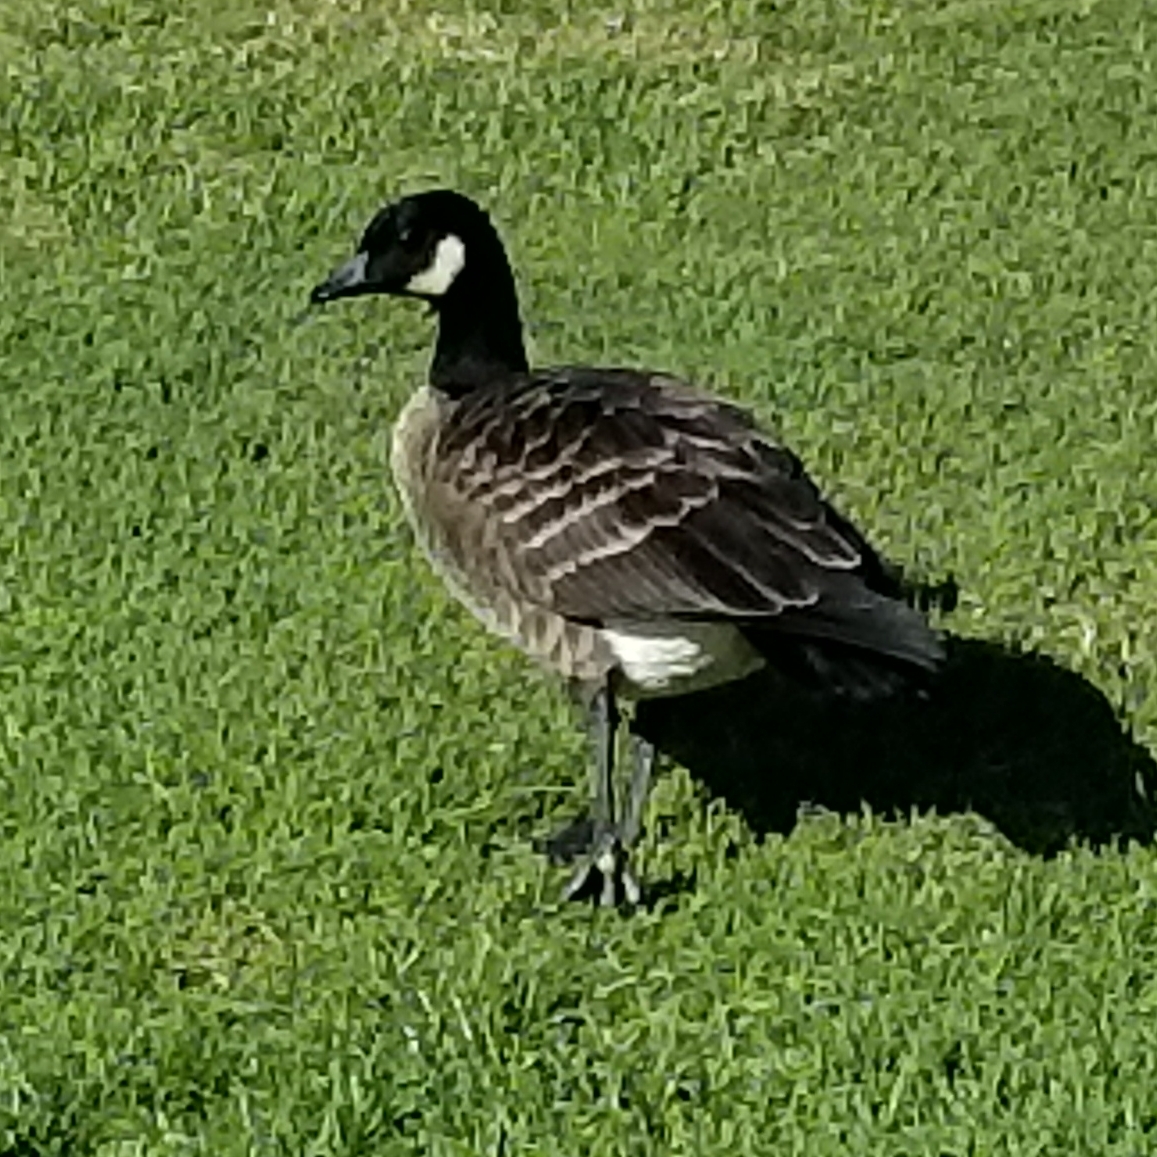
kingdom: Animalia
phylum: Chordata
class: Aves
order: Anseriformes
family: Anatidae
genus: Branta
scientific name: Branta hutchinsii
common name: Cackling goose
